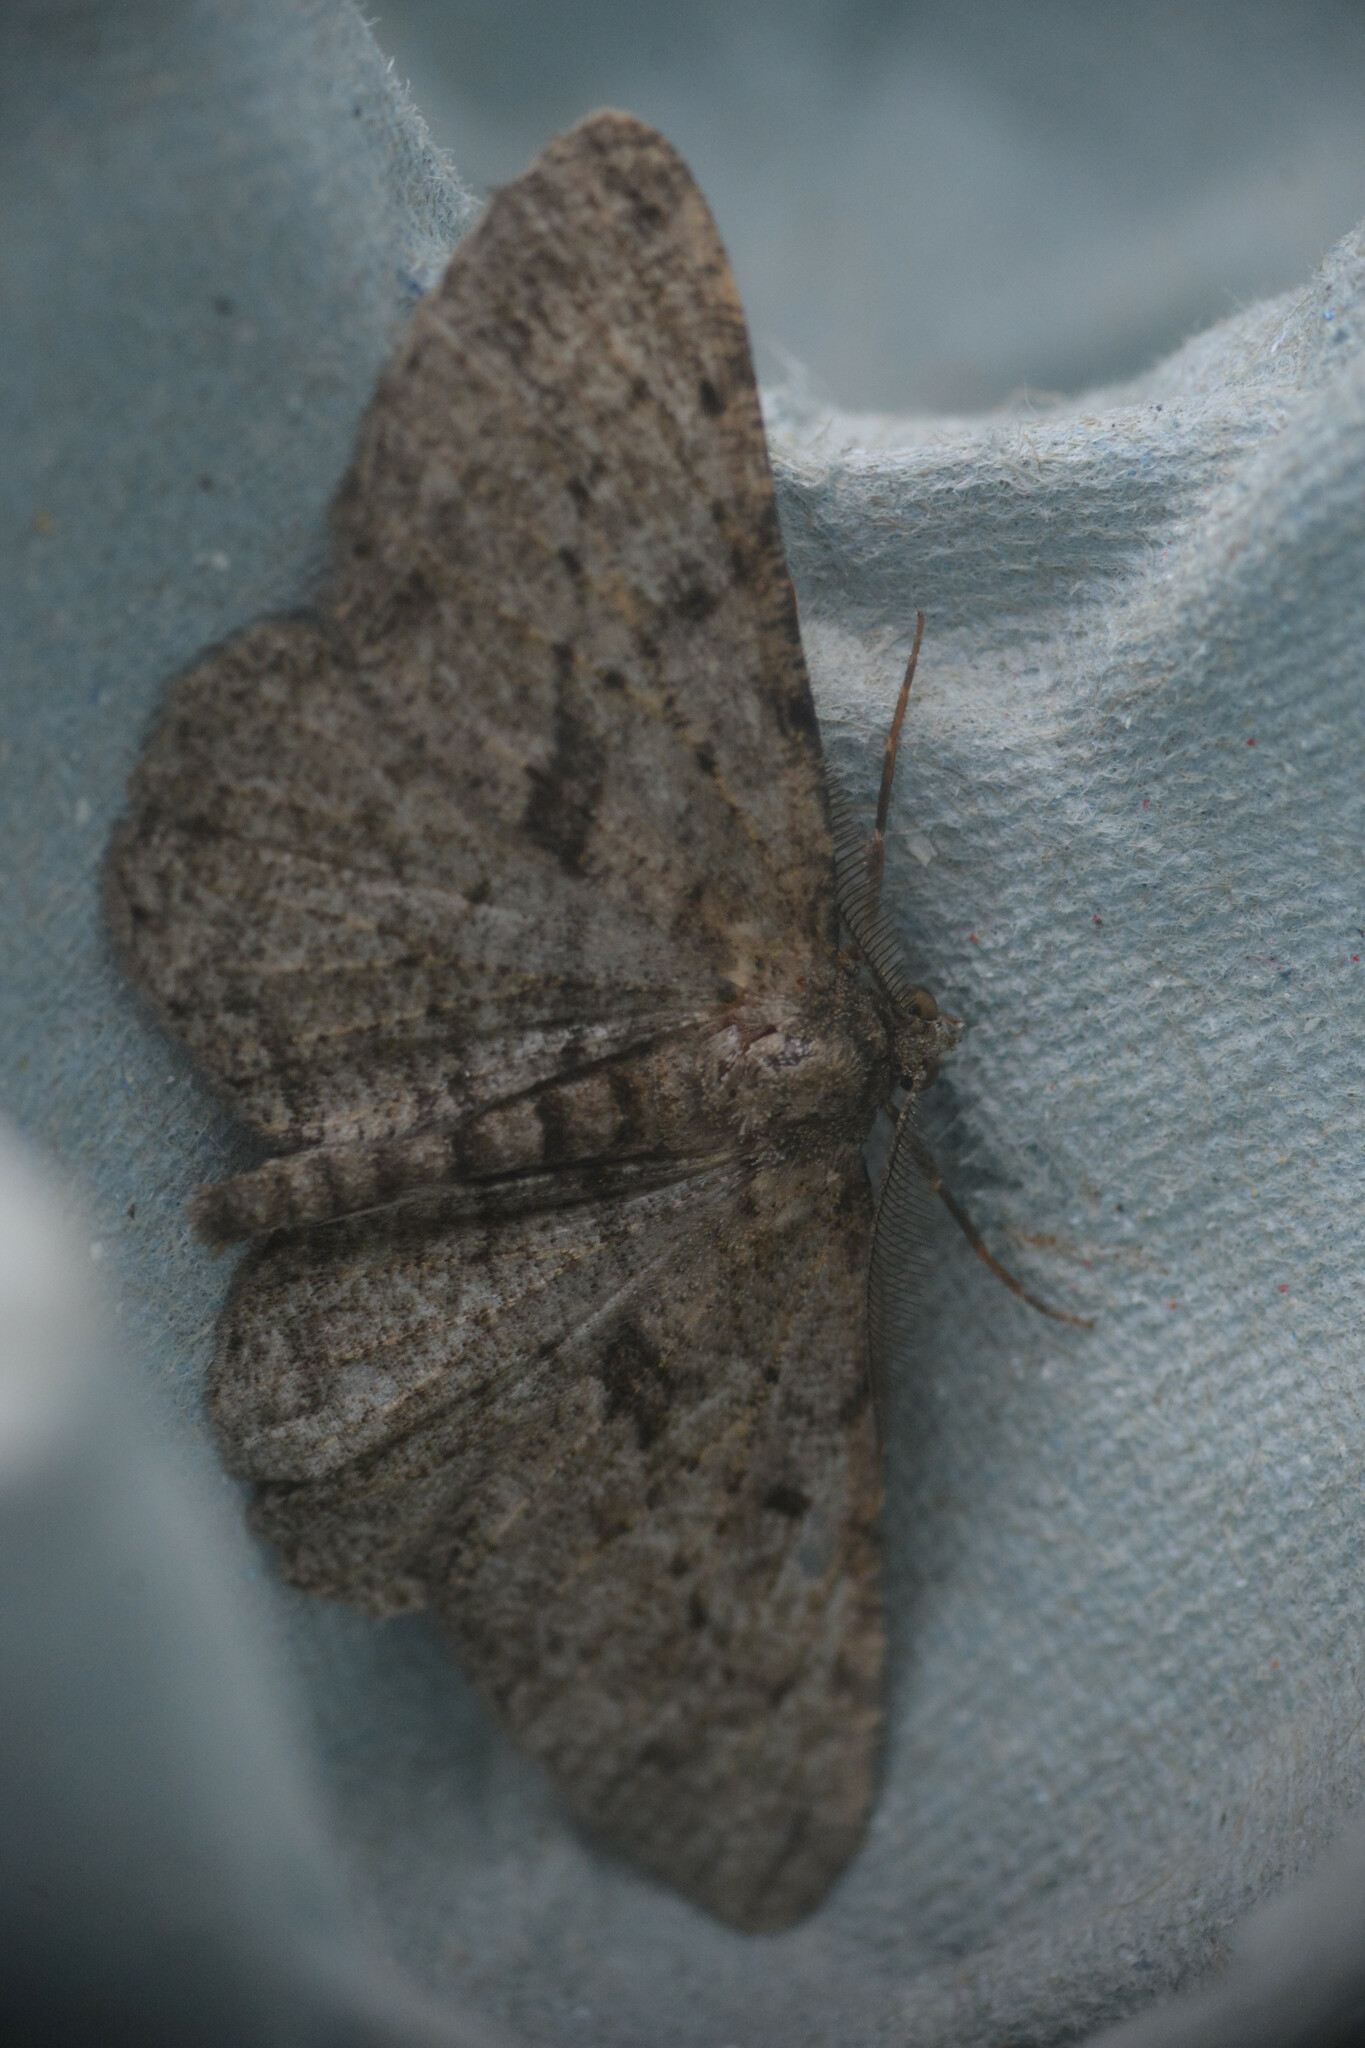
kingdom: Animalia
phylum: Arthropoda
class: Insecta
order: Lepidoptera
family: Geometridae
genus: Peribatodes
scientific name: Peribatodes rhomboidaria
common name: Willow beauty
